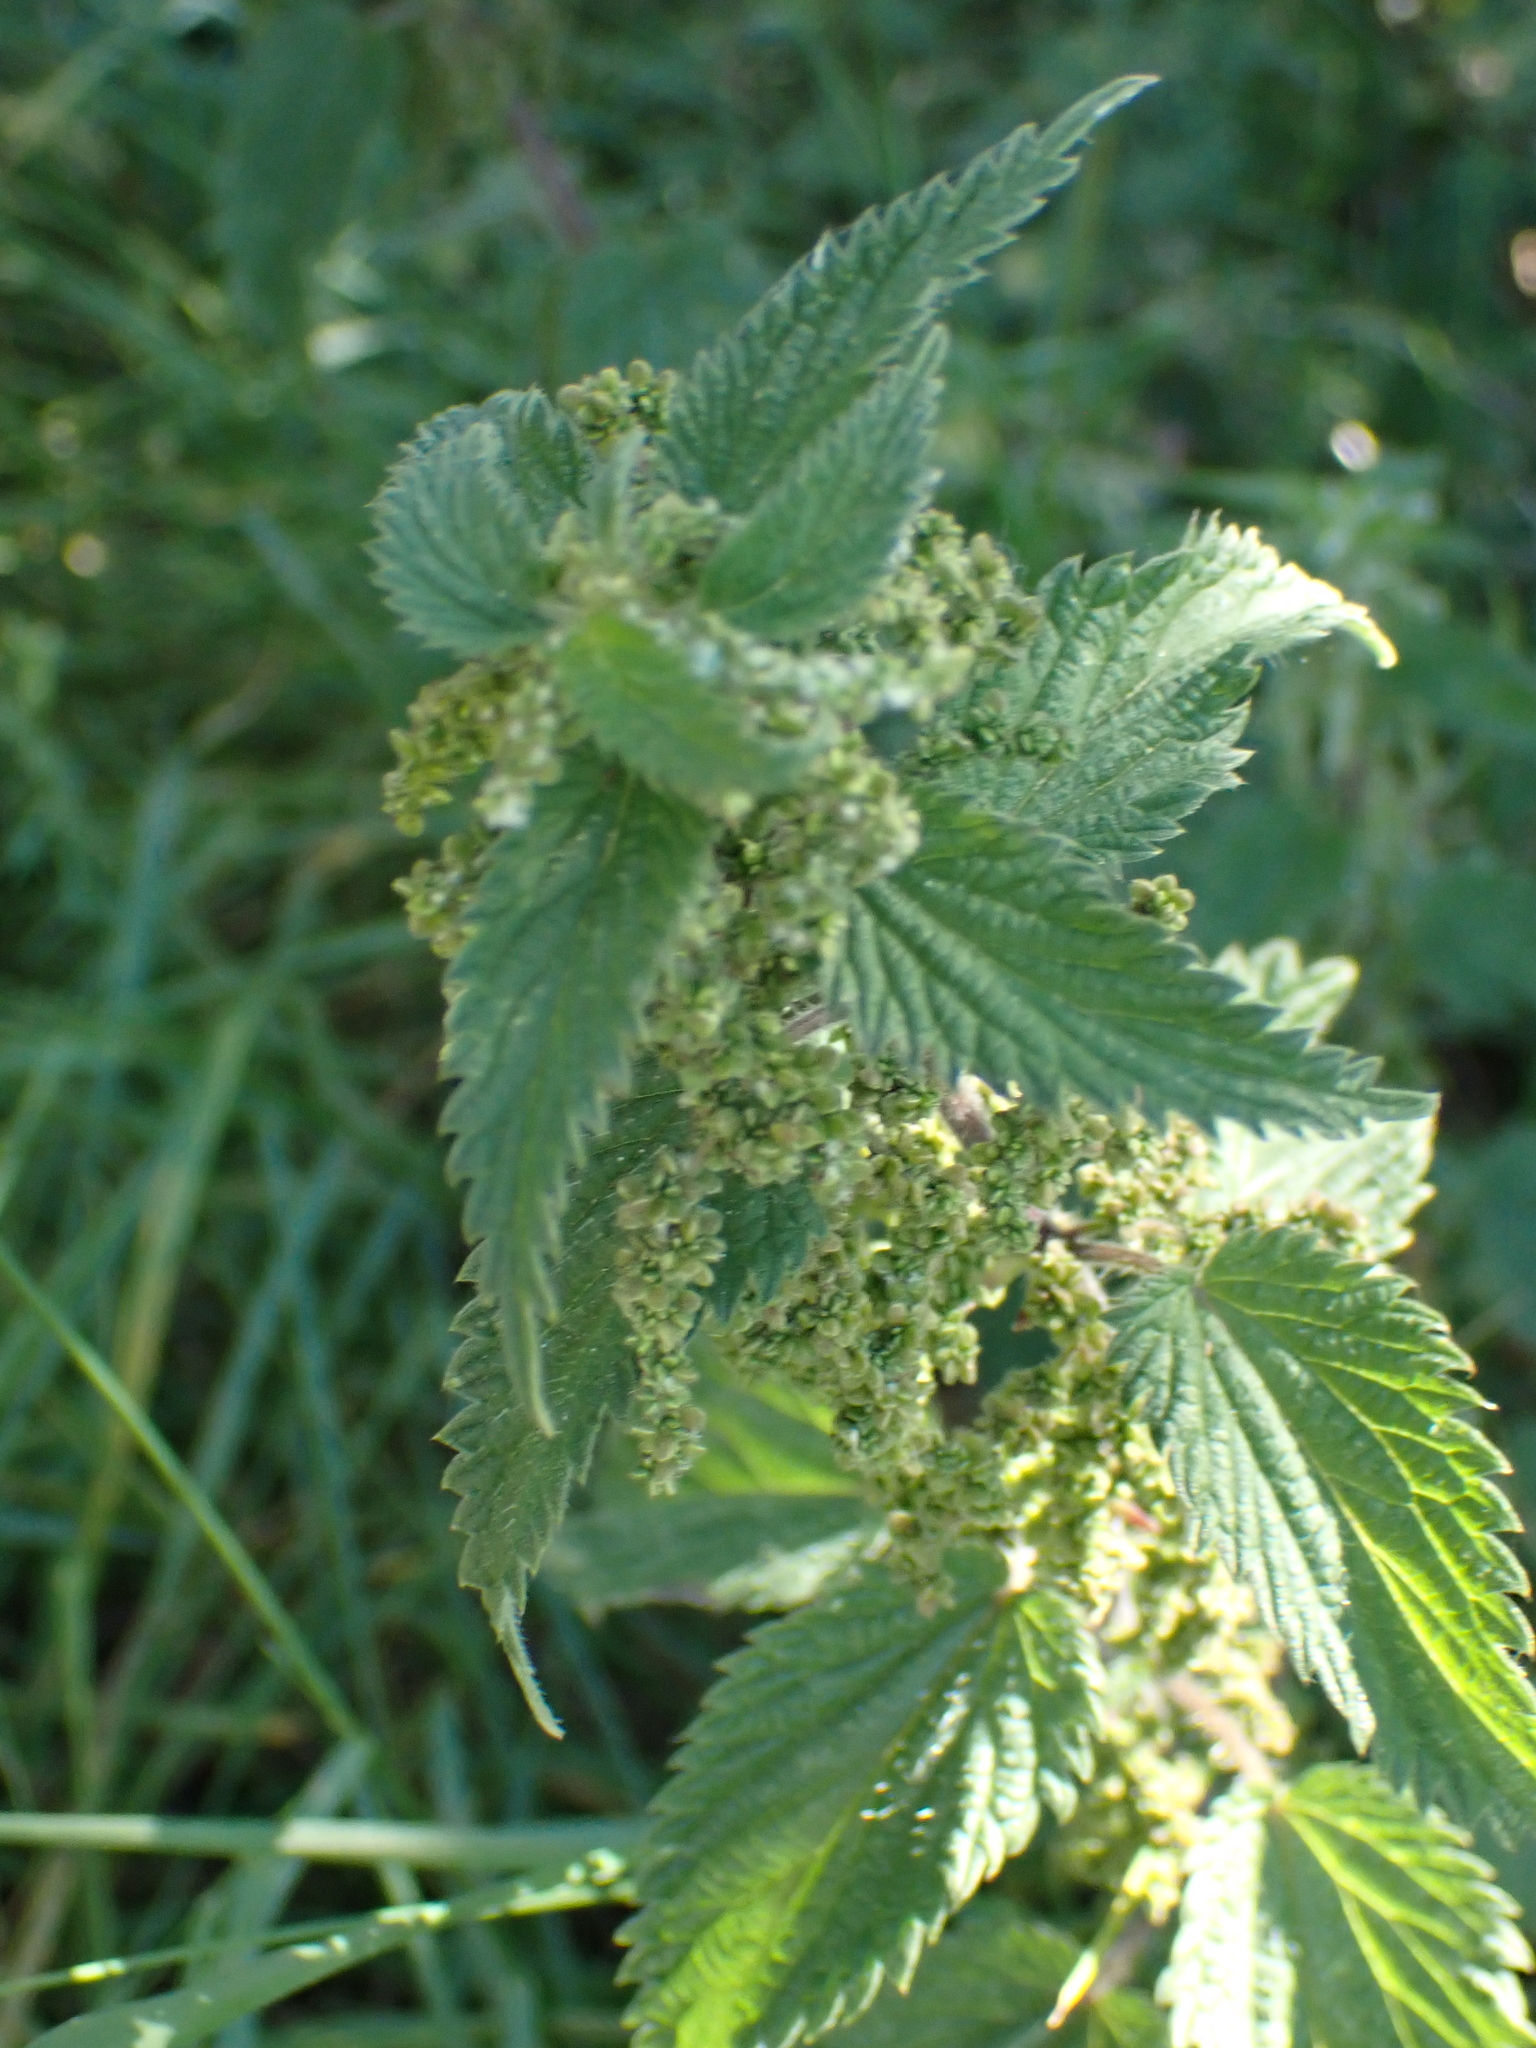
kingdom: Plantae
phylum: Tracheophyta
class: Magnoliopsida
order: Rosales
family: Urticaceae
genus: Urtica
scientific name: Urtica dioica
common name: Common nettle
